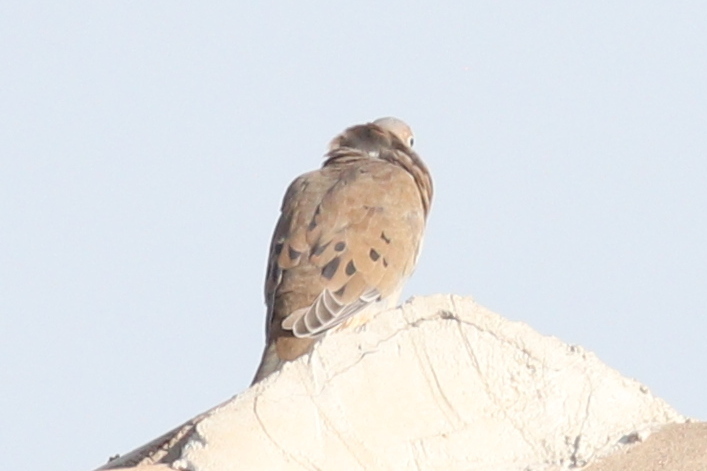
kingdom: Animalia
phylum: Chordata
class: Aves
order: Columbiformes
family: Columbidae
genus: Zenaida
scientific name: Zenaida macroura
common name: Mourning dove
